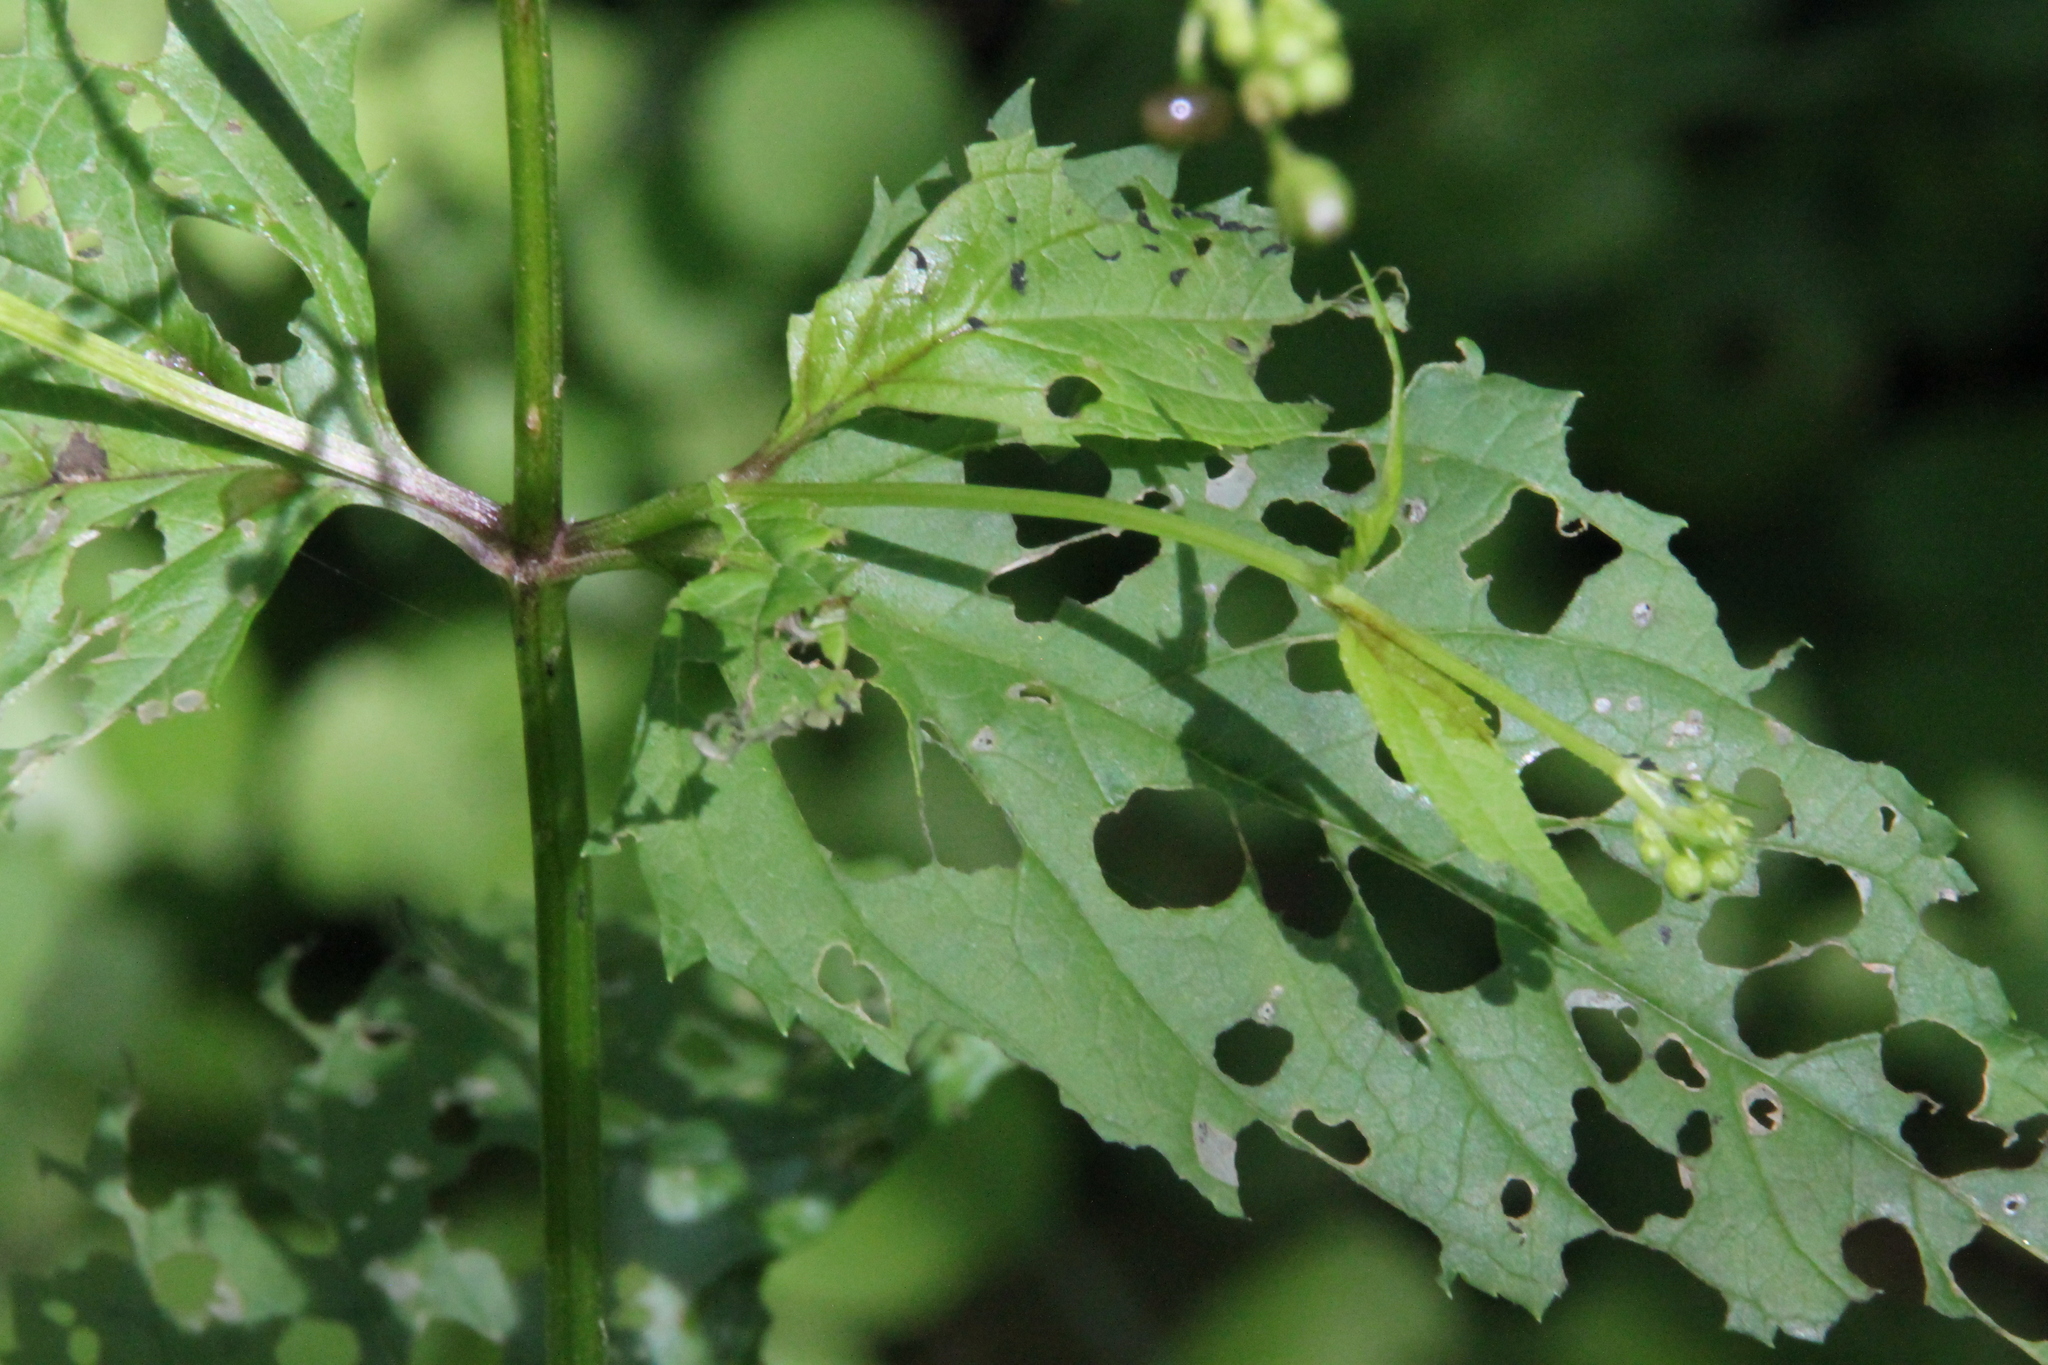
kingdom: Plantae
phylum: Tracheophyta
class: Magnoliopsida
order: Lamiales
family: Scrophulariaceae
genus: Scrophularia
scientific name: Scrophularia nodosa
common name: Common figwort
